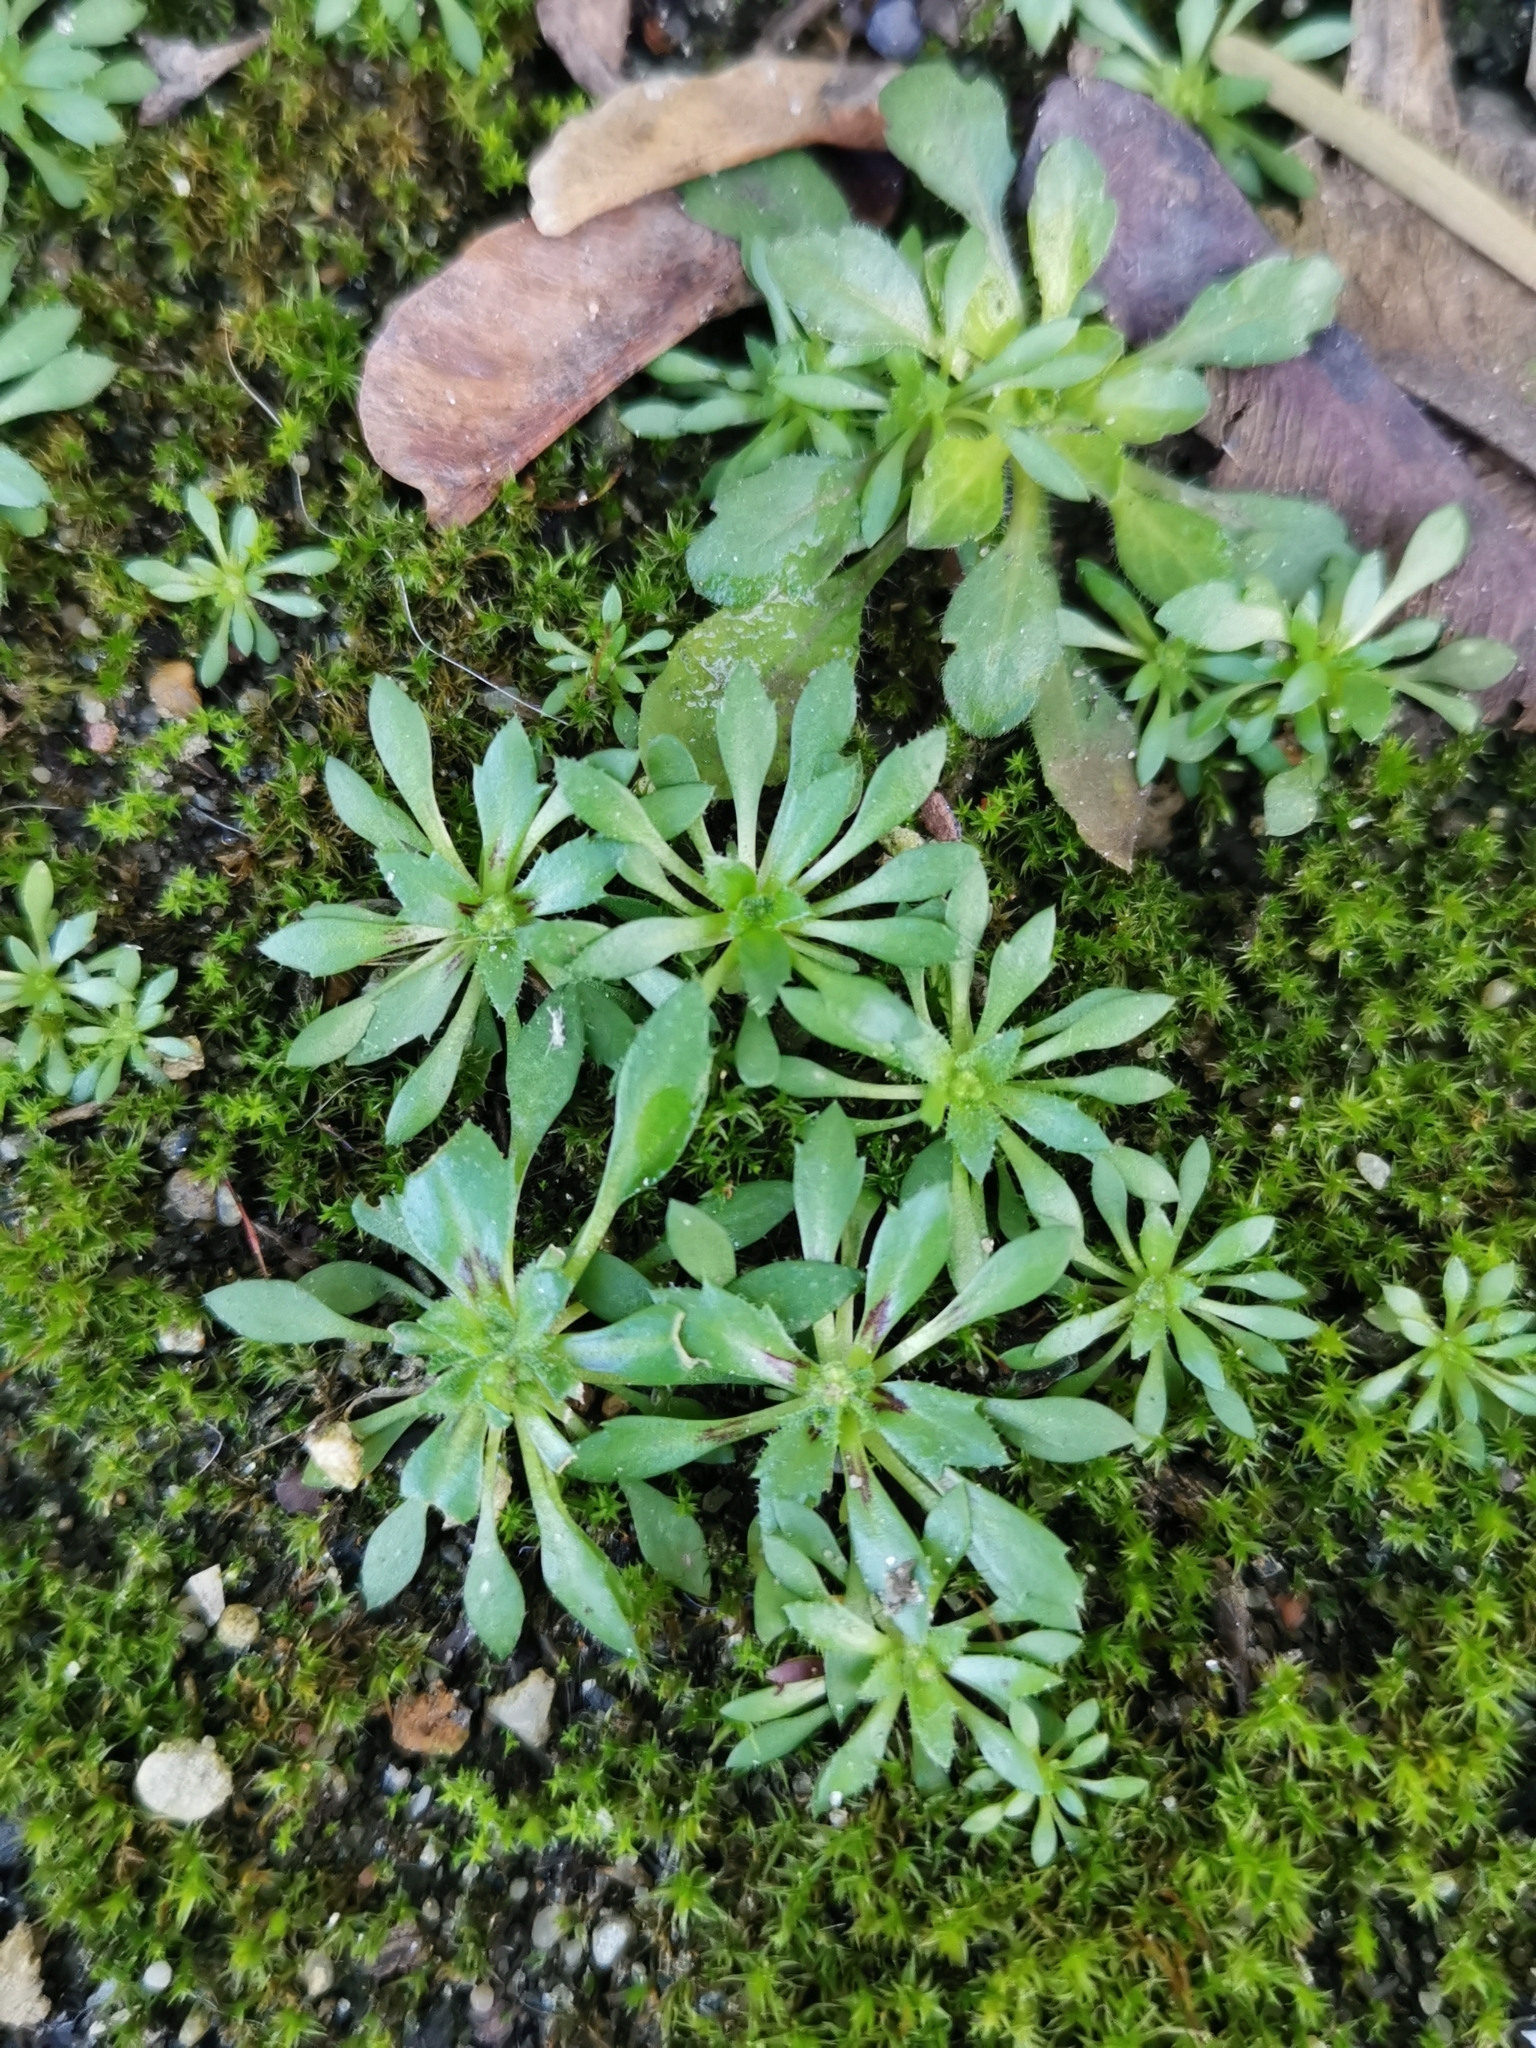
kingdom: Plantae
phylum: Tracheophyta
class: Magnoliopsida
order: Brassicales
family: Brassicaceae
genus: Draba
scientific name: Draba verna
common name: Spring draba
